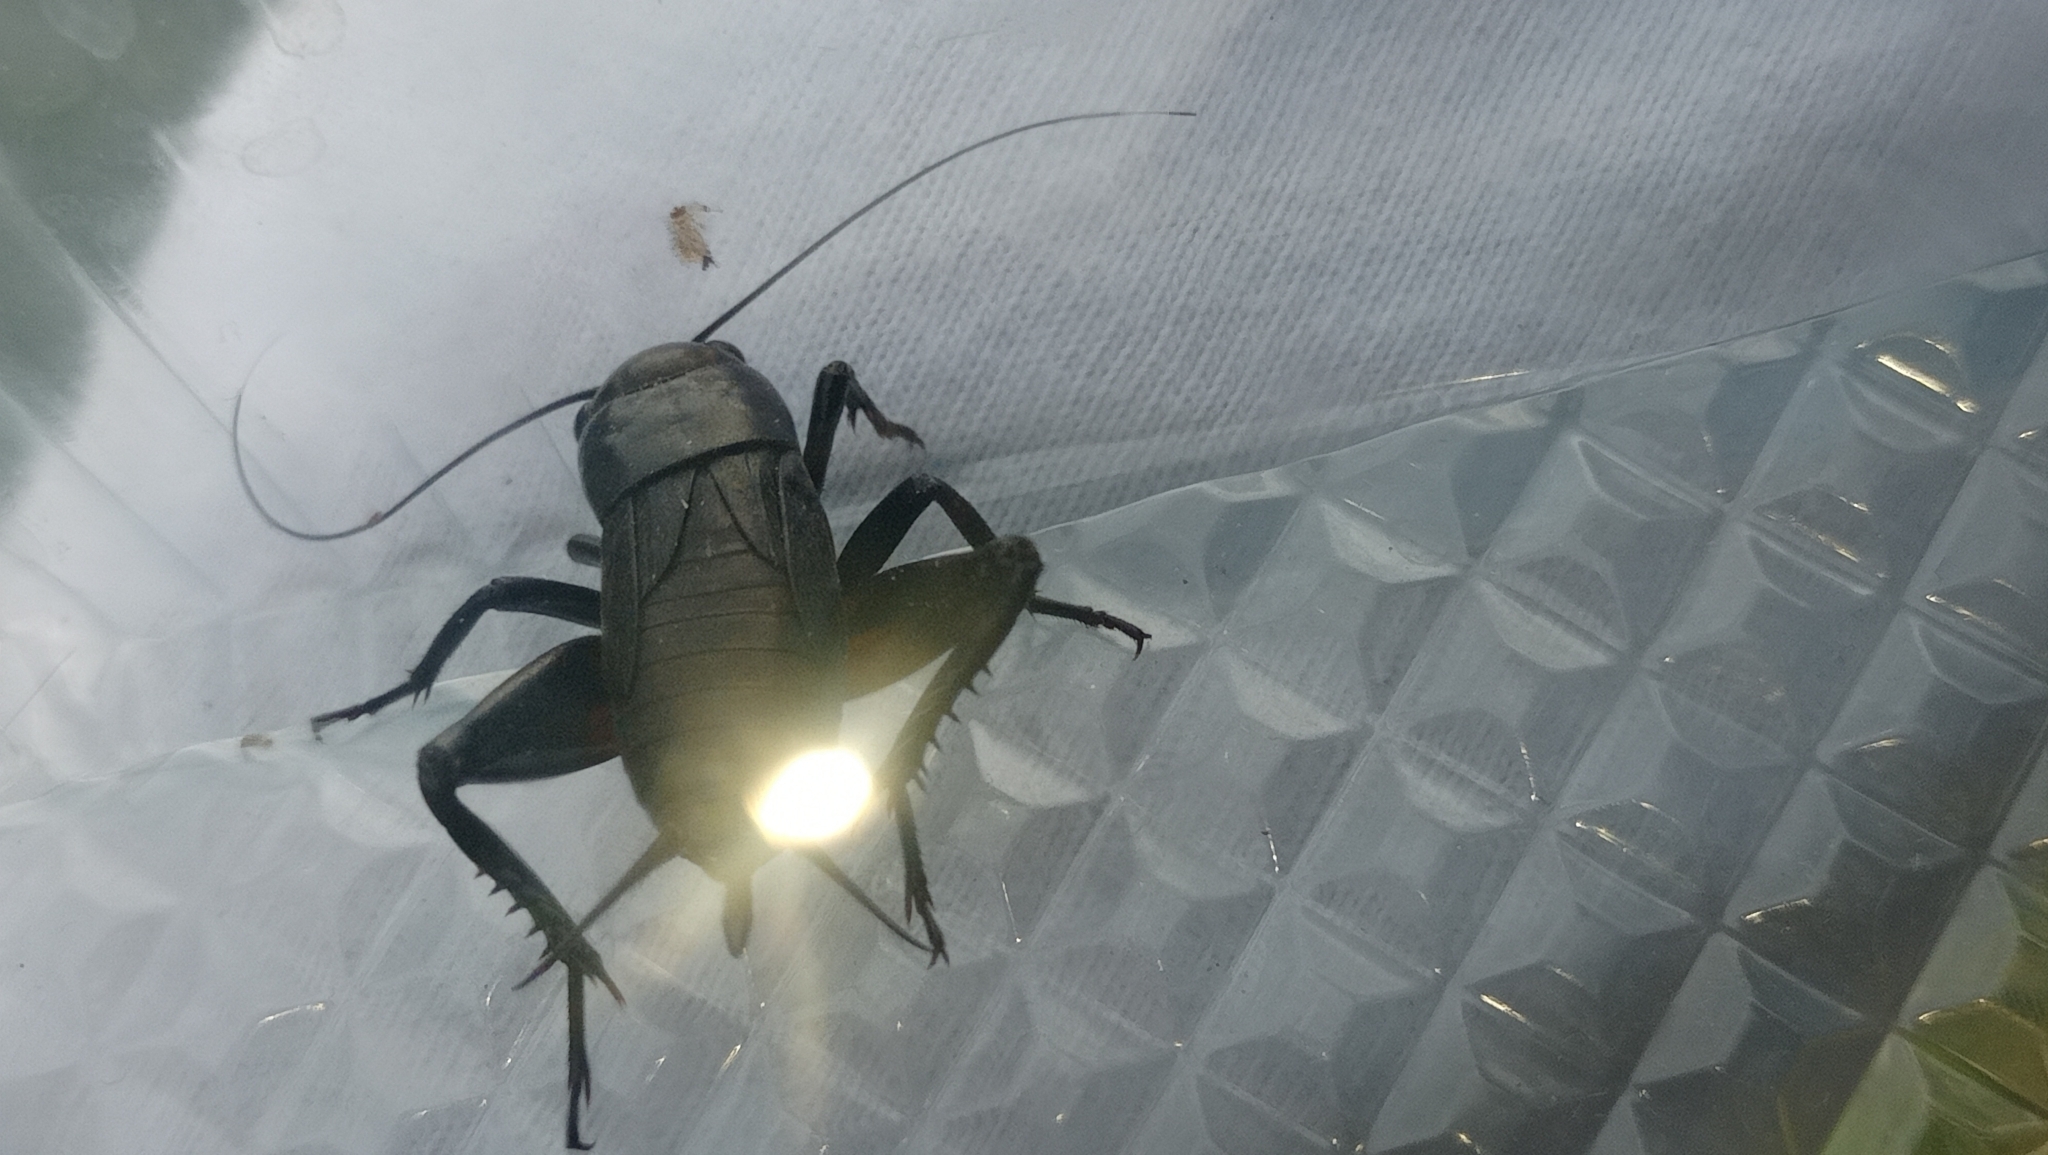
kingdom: Animalia
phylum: Arthropoda
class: Insecta
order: Orthoptera
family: Gryllidae
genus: Gryllus
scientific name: Gryllus bimaculatus
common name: Two-spotted cricket
